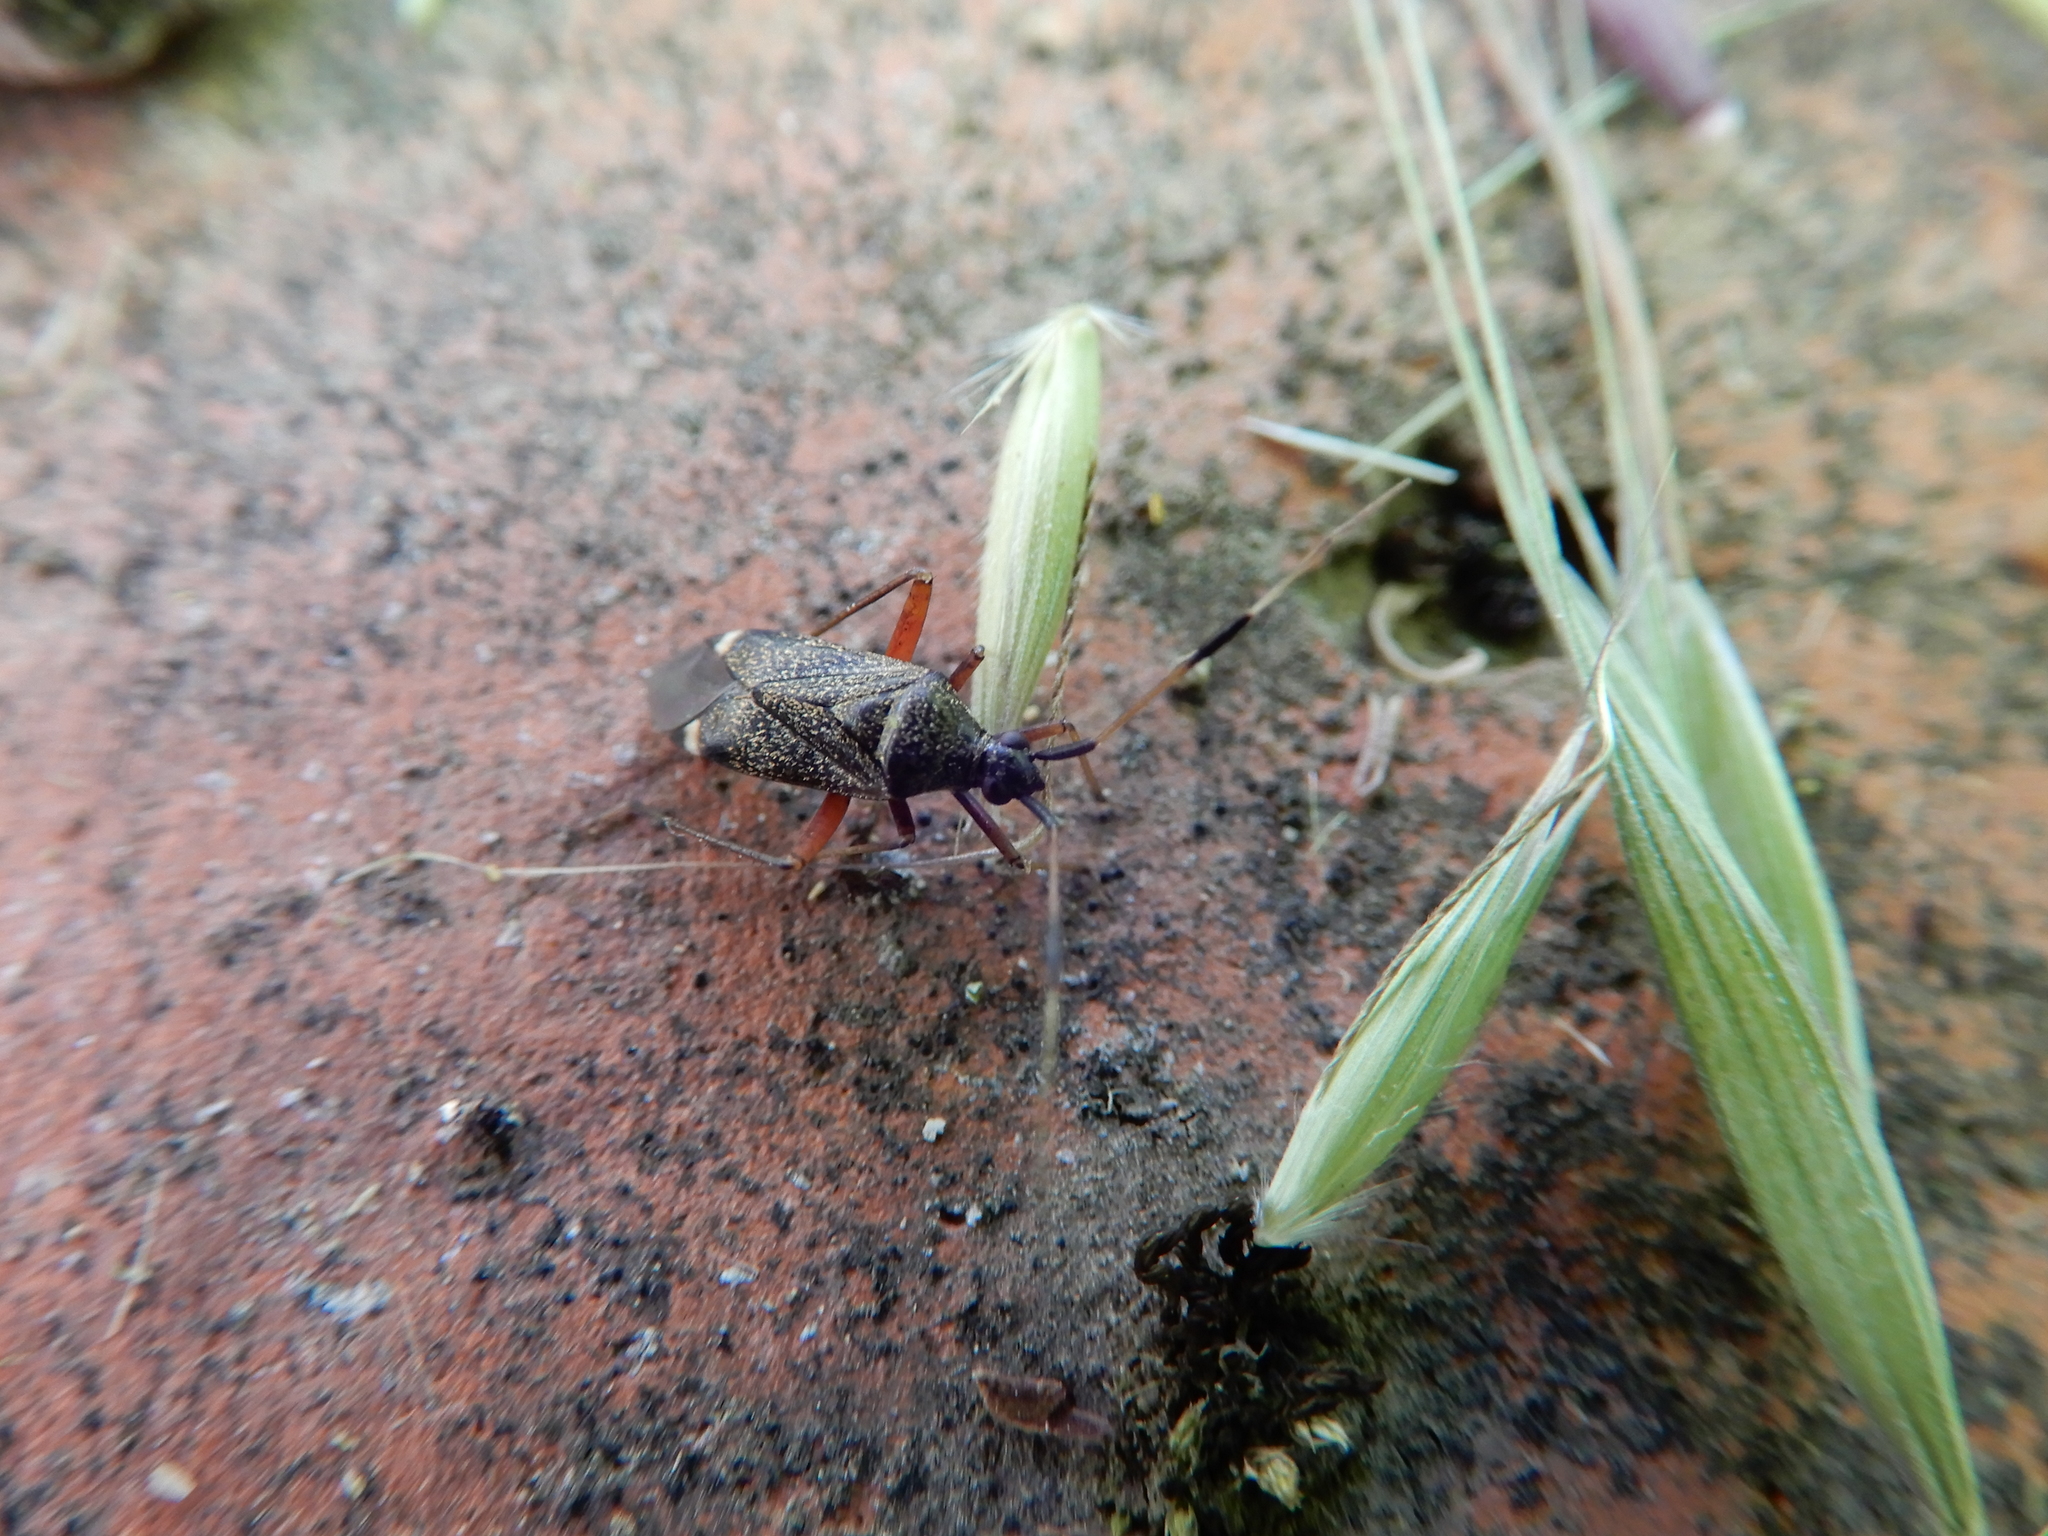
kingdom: Animalia
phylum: Arthropoda
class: Insecta
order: Hemiptera
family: Miridae
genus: Closterotomus
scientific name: Closterotomus biclavatus
